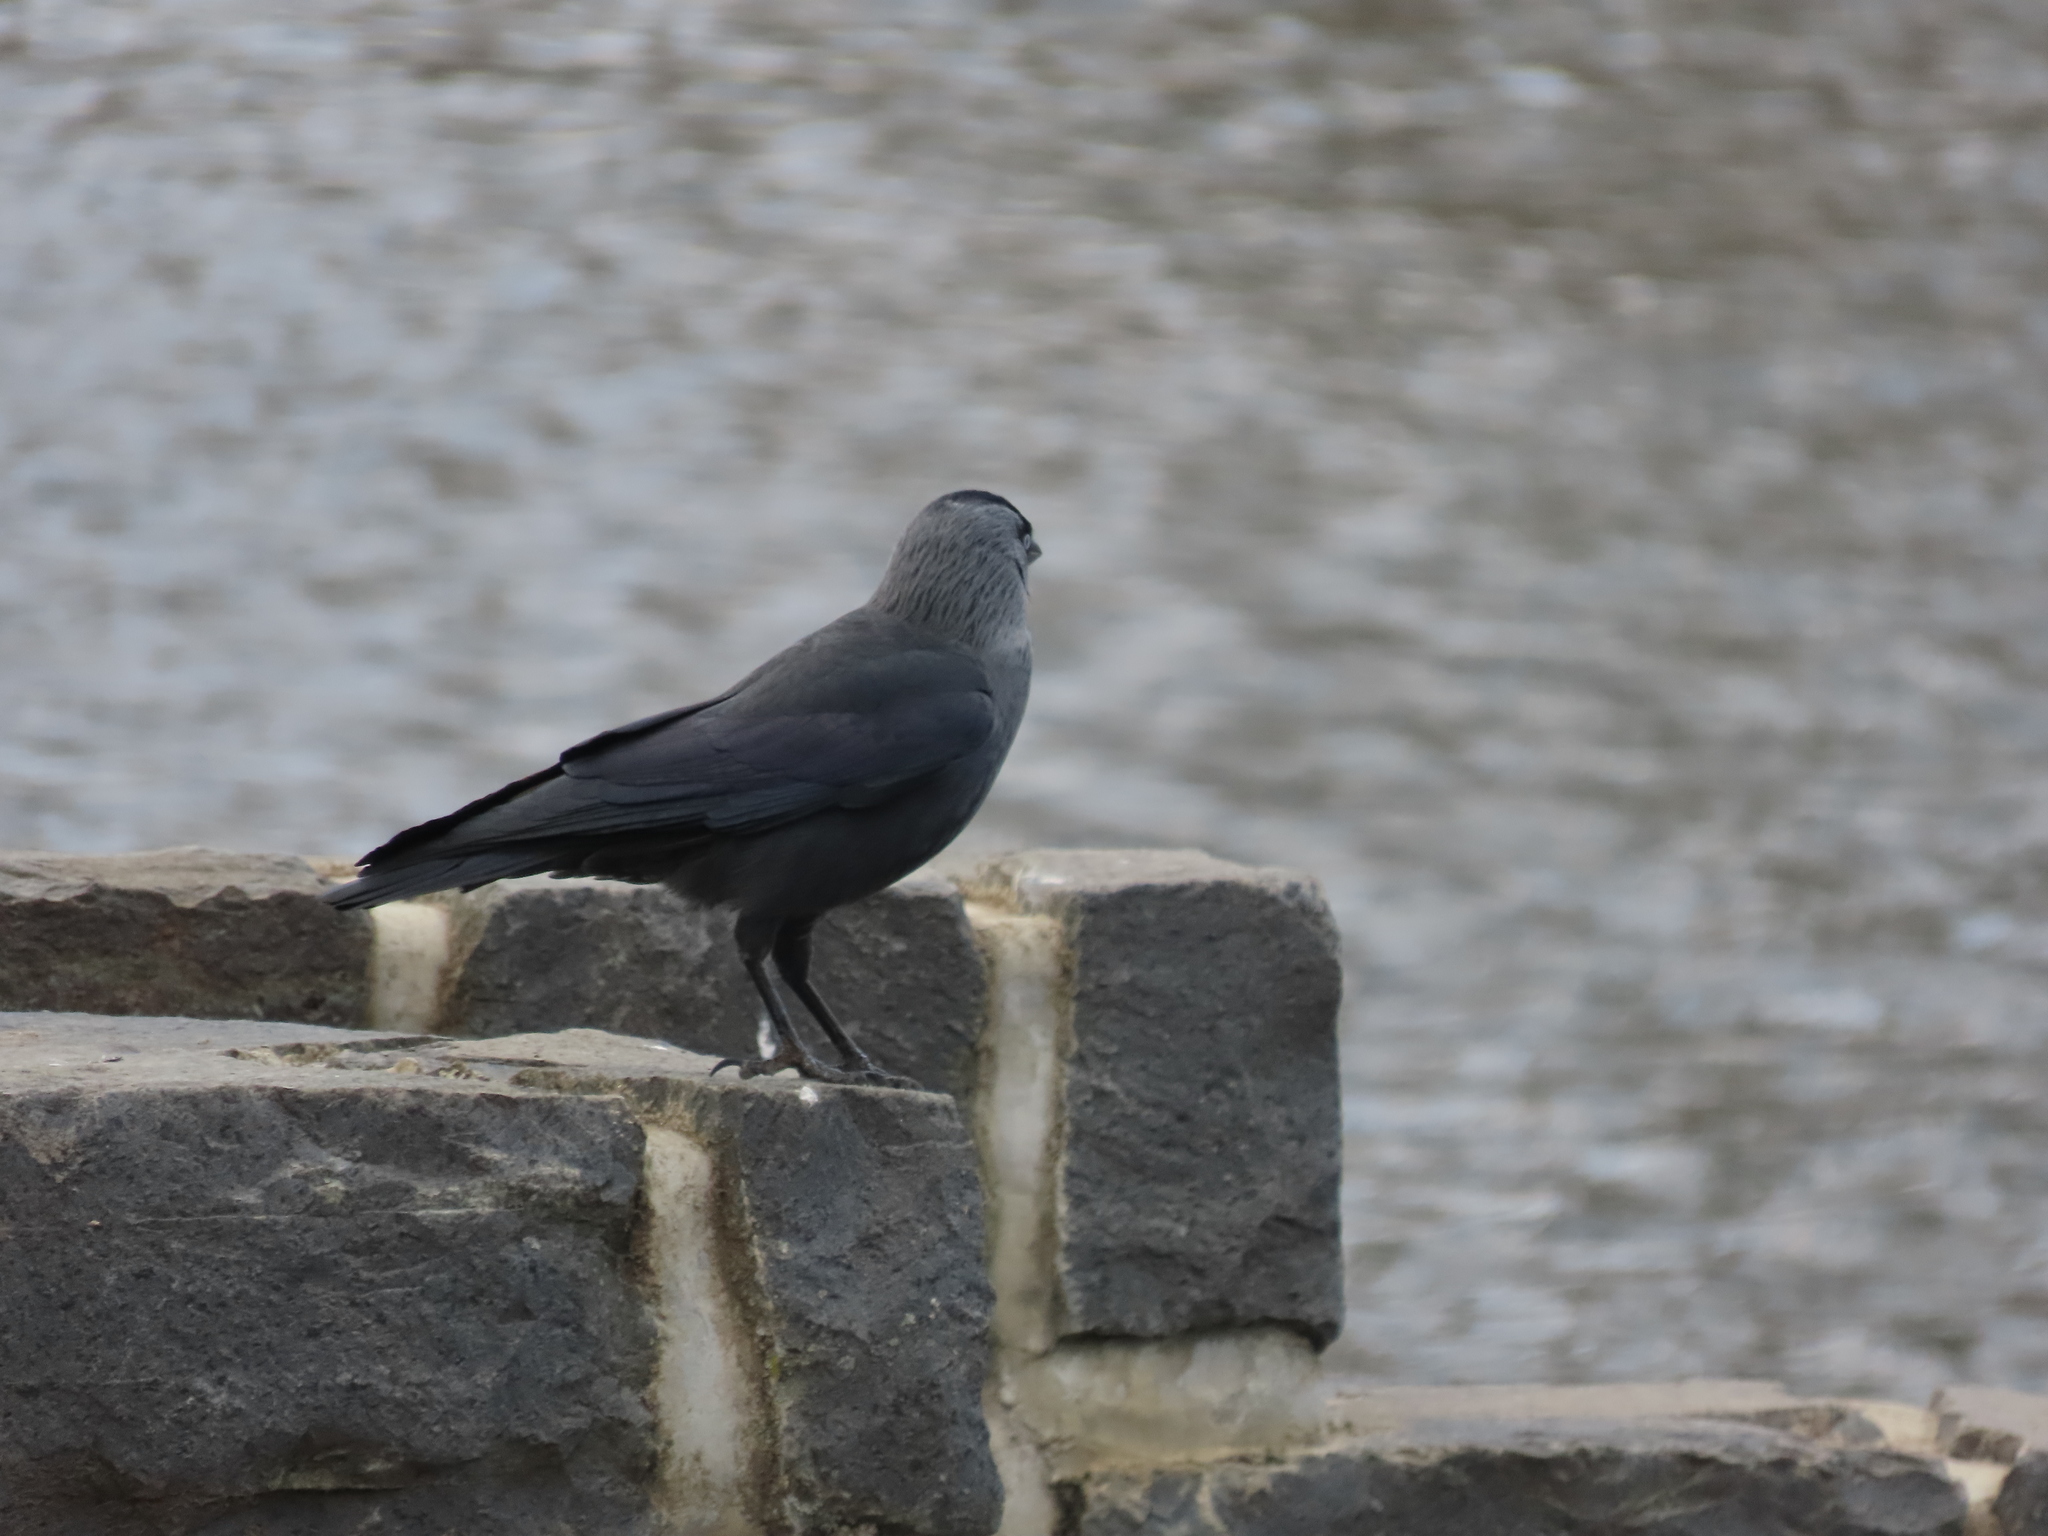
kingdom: Animalia
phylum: Chordata
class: Aves
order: Passeriformes
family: Corvidae
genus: Coloeus
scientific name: Coloeus monedula
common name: Western jackdaw
